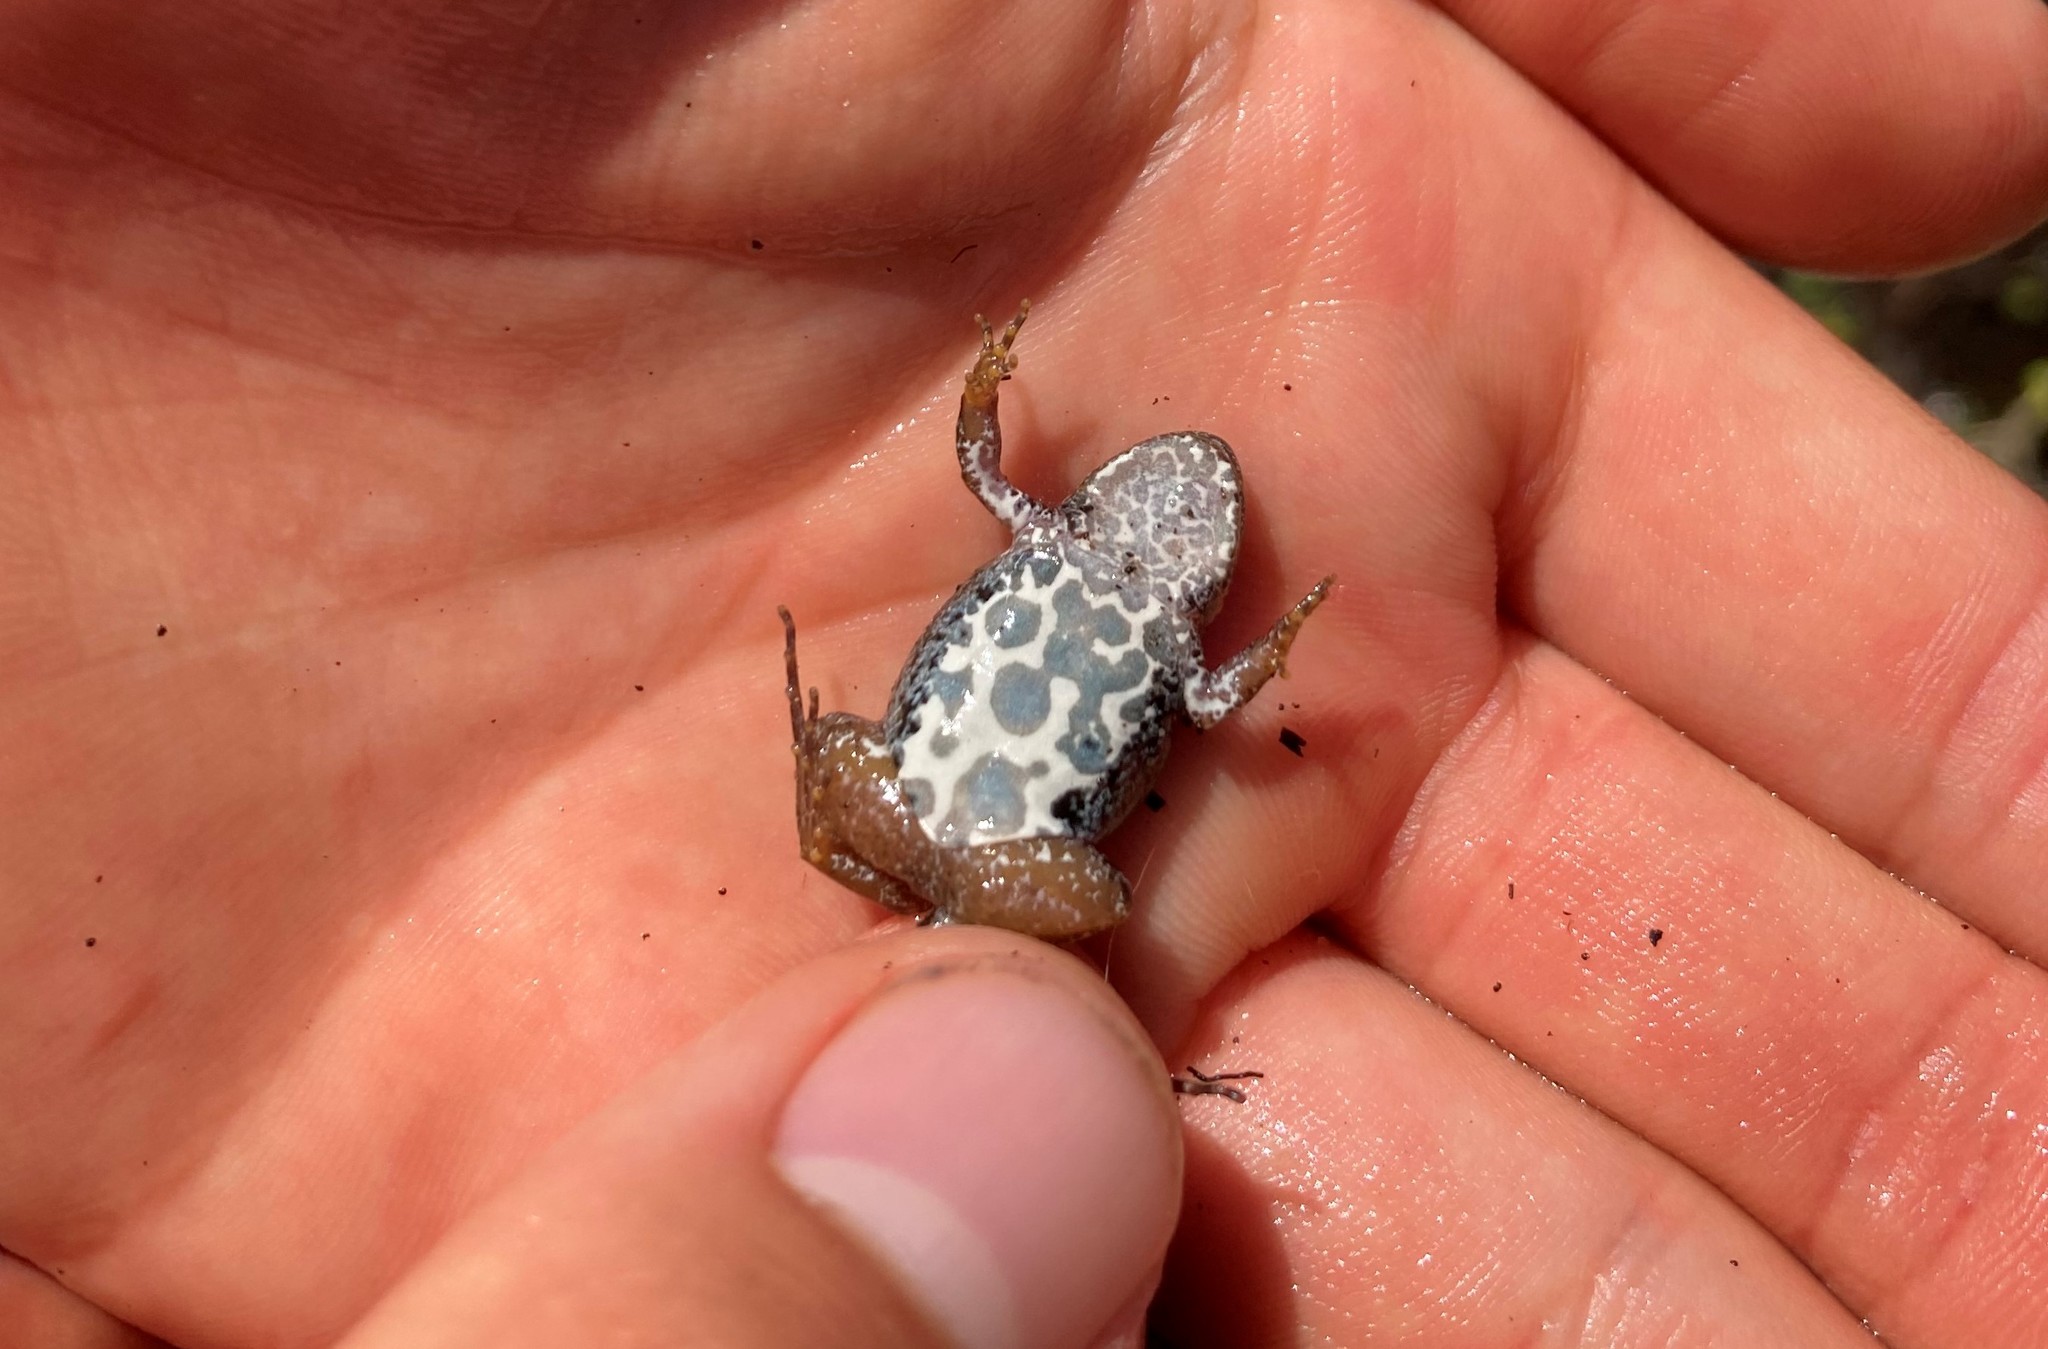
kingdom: Animalia
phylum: Chordata
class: Amphibia
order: Anura
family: Pyxicephalidae
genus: Cacosternum
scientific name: Cacosternum nanum
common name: Bronze dainty frog
